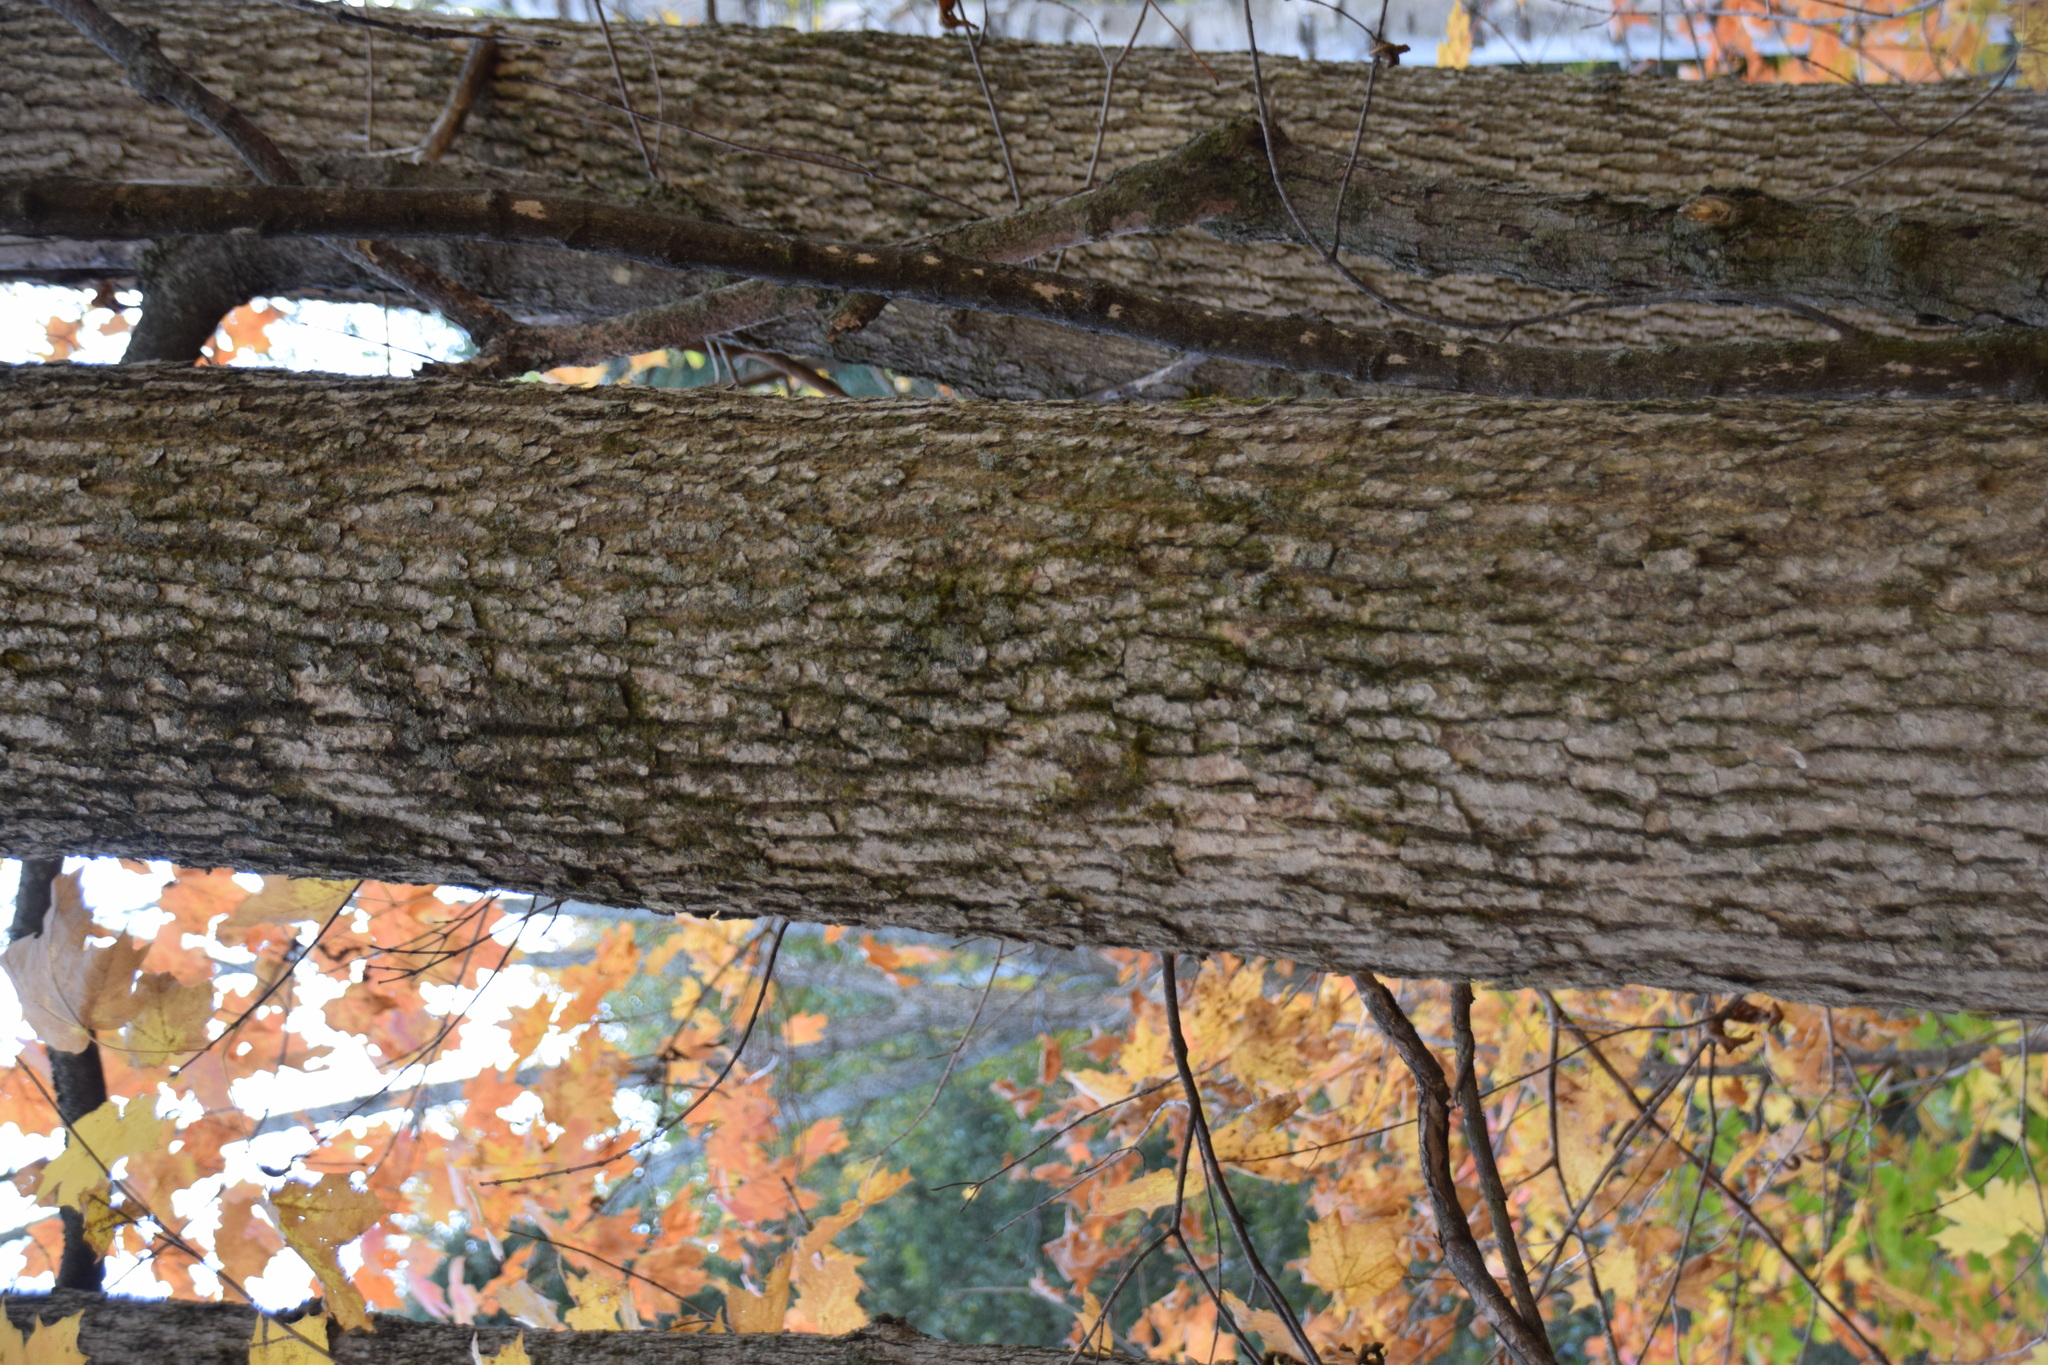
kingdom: Plantae
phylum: Tracheophyta
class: Magnoliopsida
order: Lamiales
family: Oleaceae
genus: Fraxinus
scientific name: Fraxinus nigra
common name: Black ash
